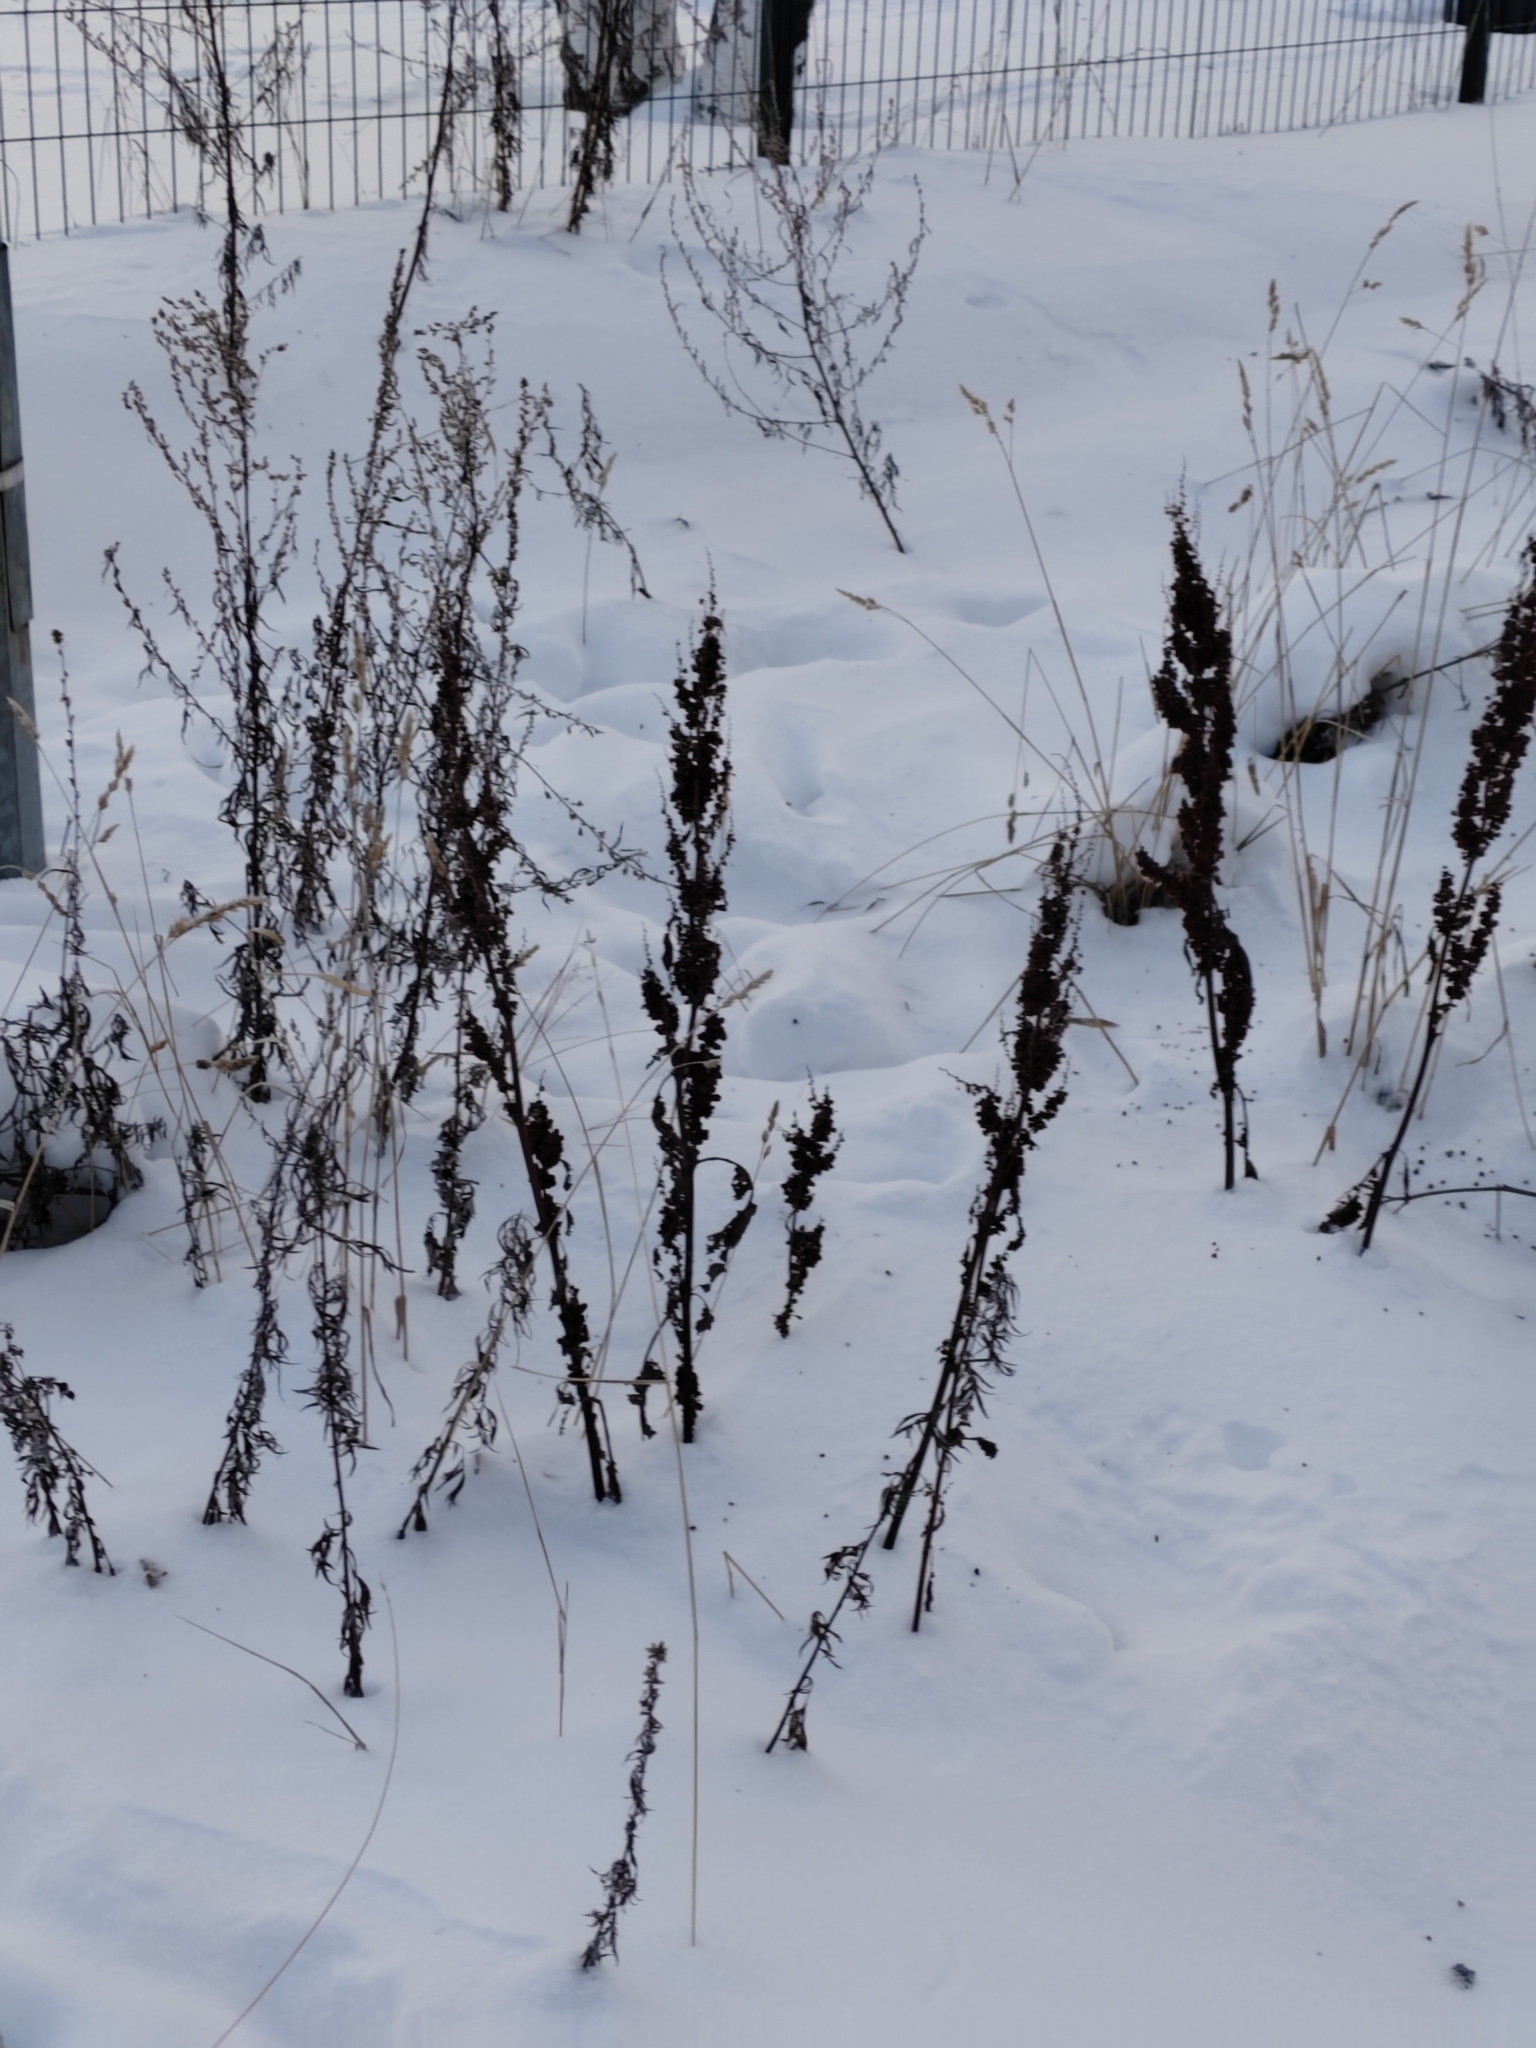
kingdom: Plantae
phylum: Tracheophyta
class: Magnoliopsida
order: Asterales
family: Asteraceae
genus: Artemisia
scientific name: Artemisia vulgaris
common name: Mugwort
